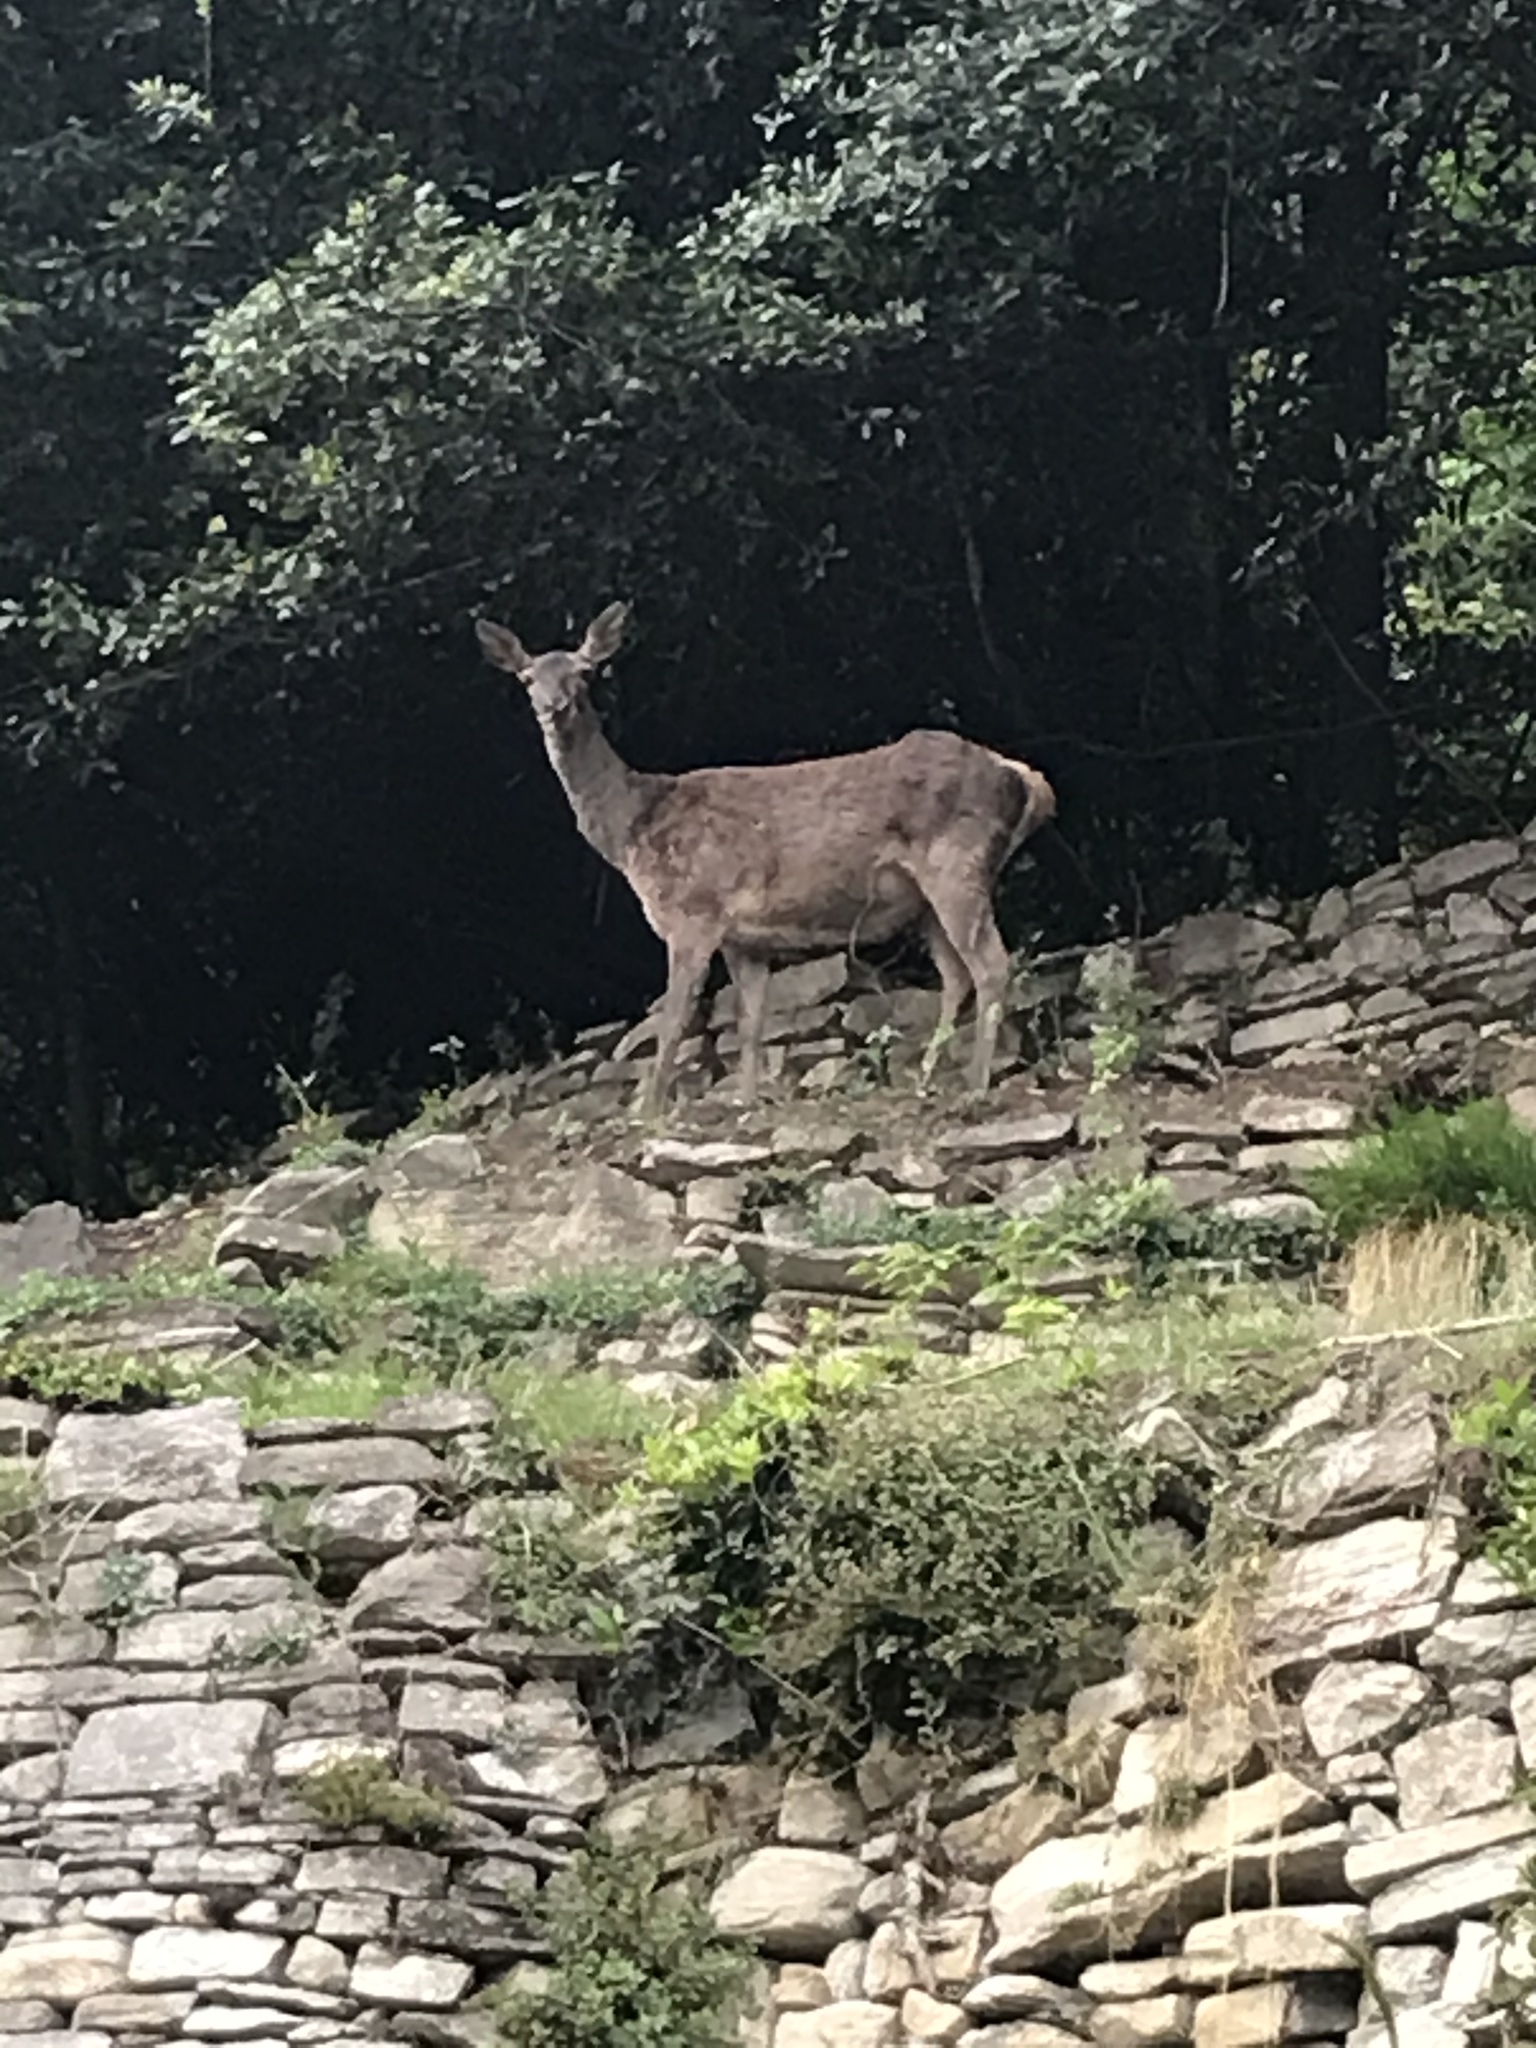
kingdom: Animalia
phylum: Chordata
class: Mammalia
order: Artiodactyla
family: Cervidae
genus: Cervus
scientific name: Cervus elaphus
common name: Red deer
